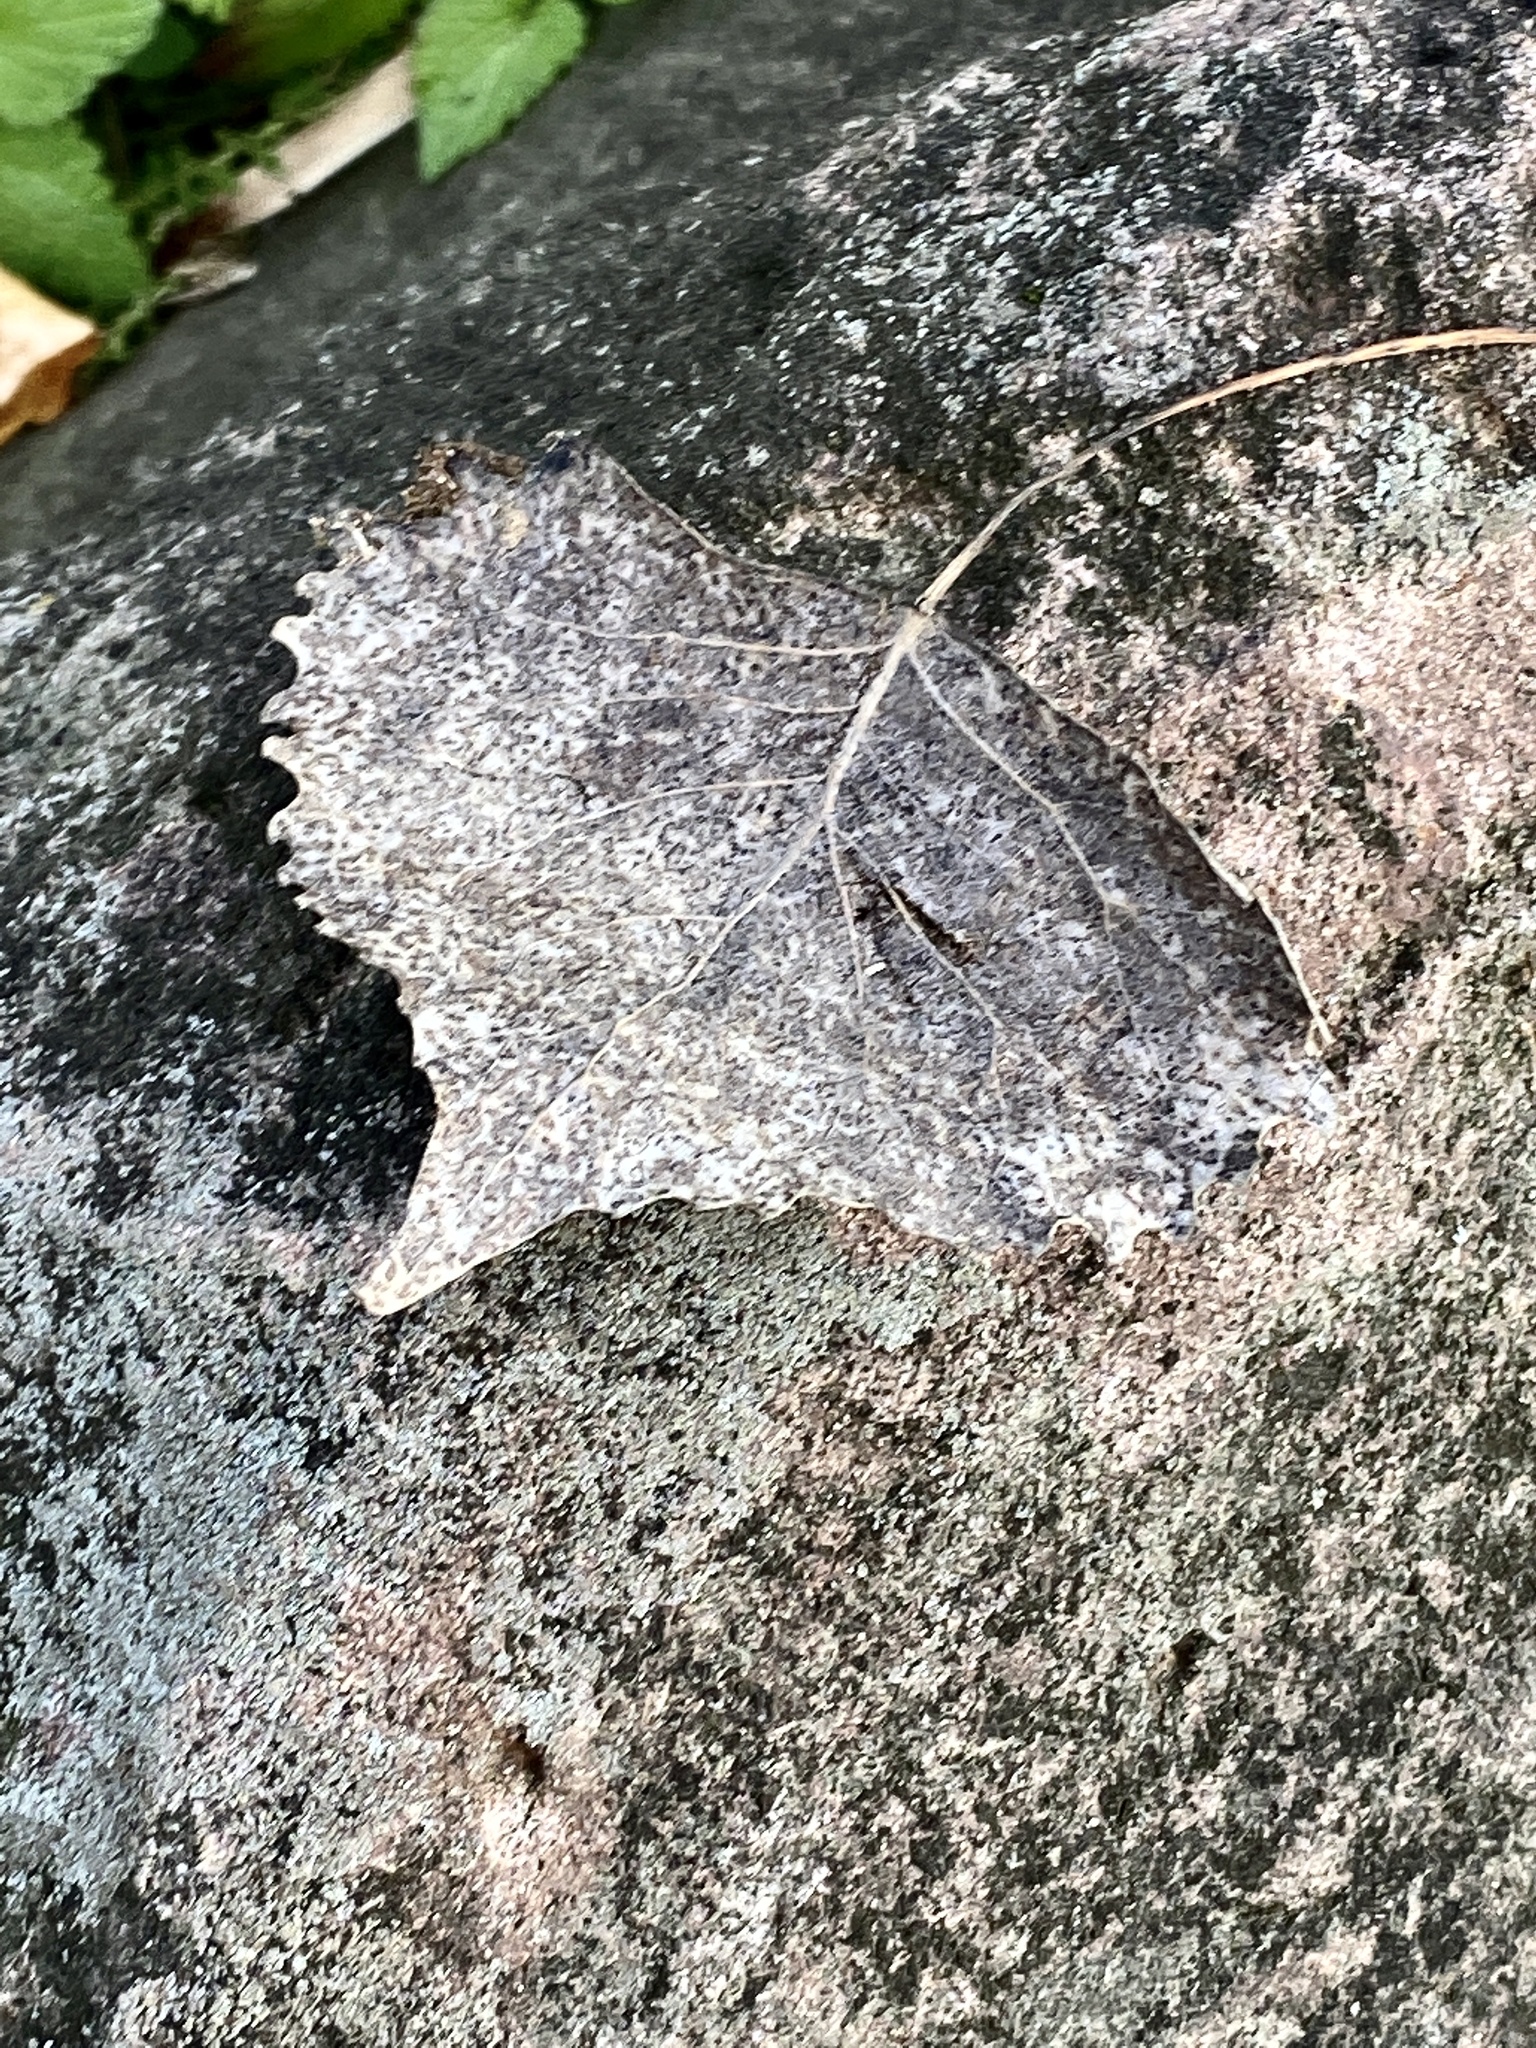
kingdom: Plantae
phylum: Tracheophyta
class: Magnoliopsida
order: Malpighiales
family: Salicaceae
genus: Populus
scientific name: Populus deltoides
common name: Eastern cottonwood
